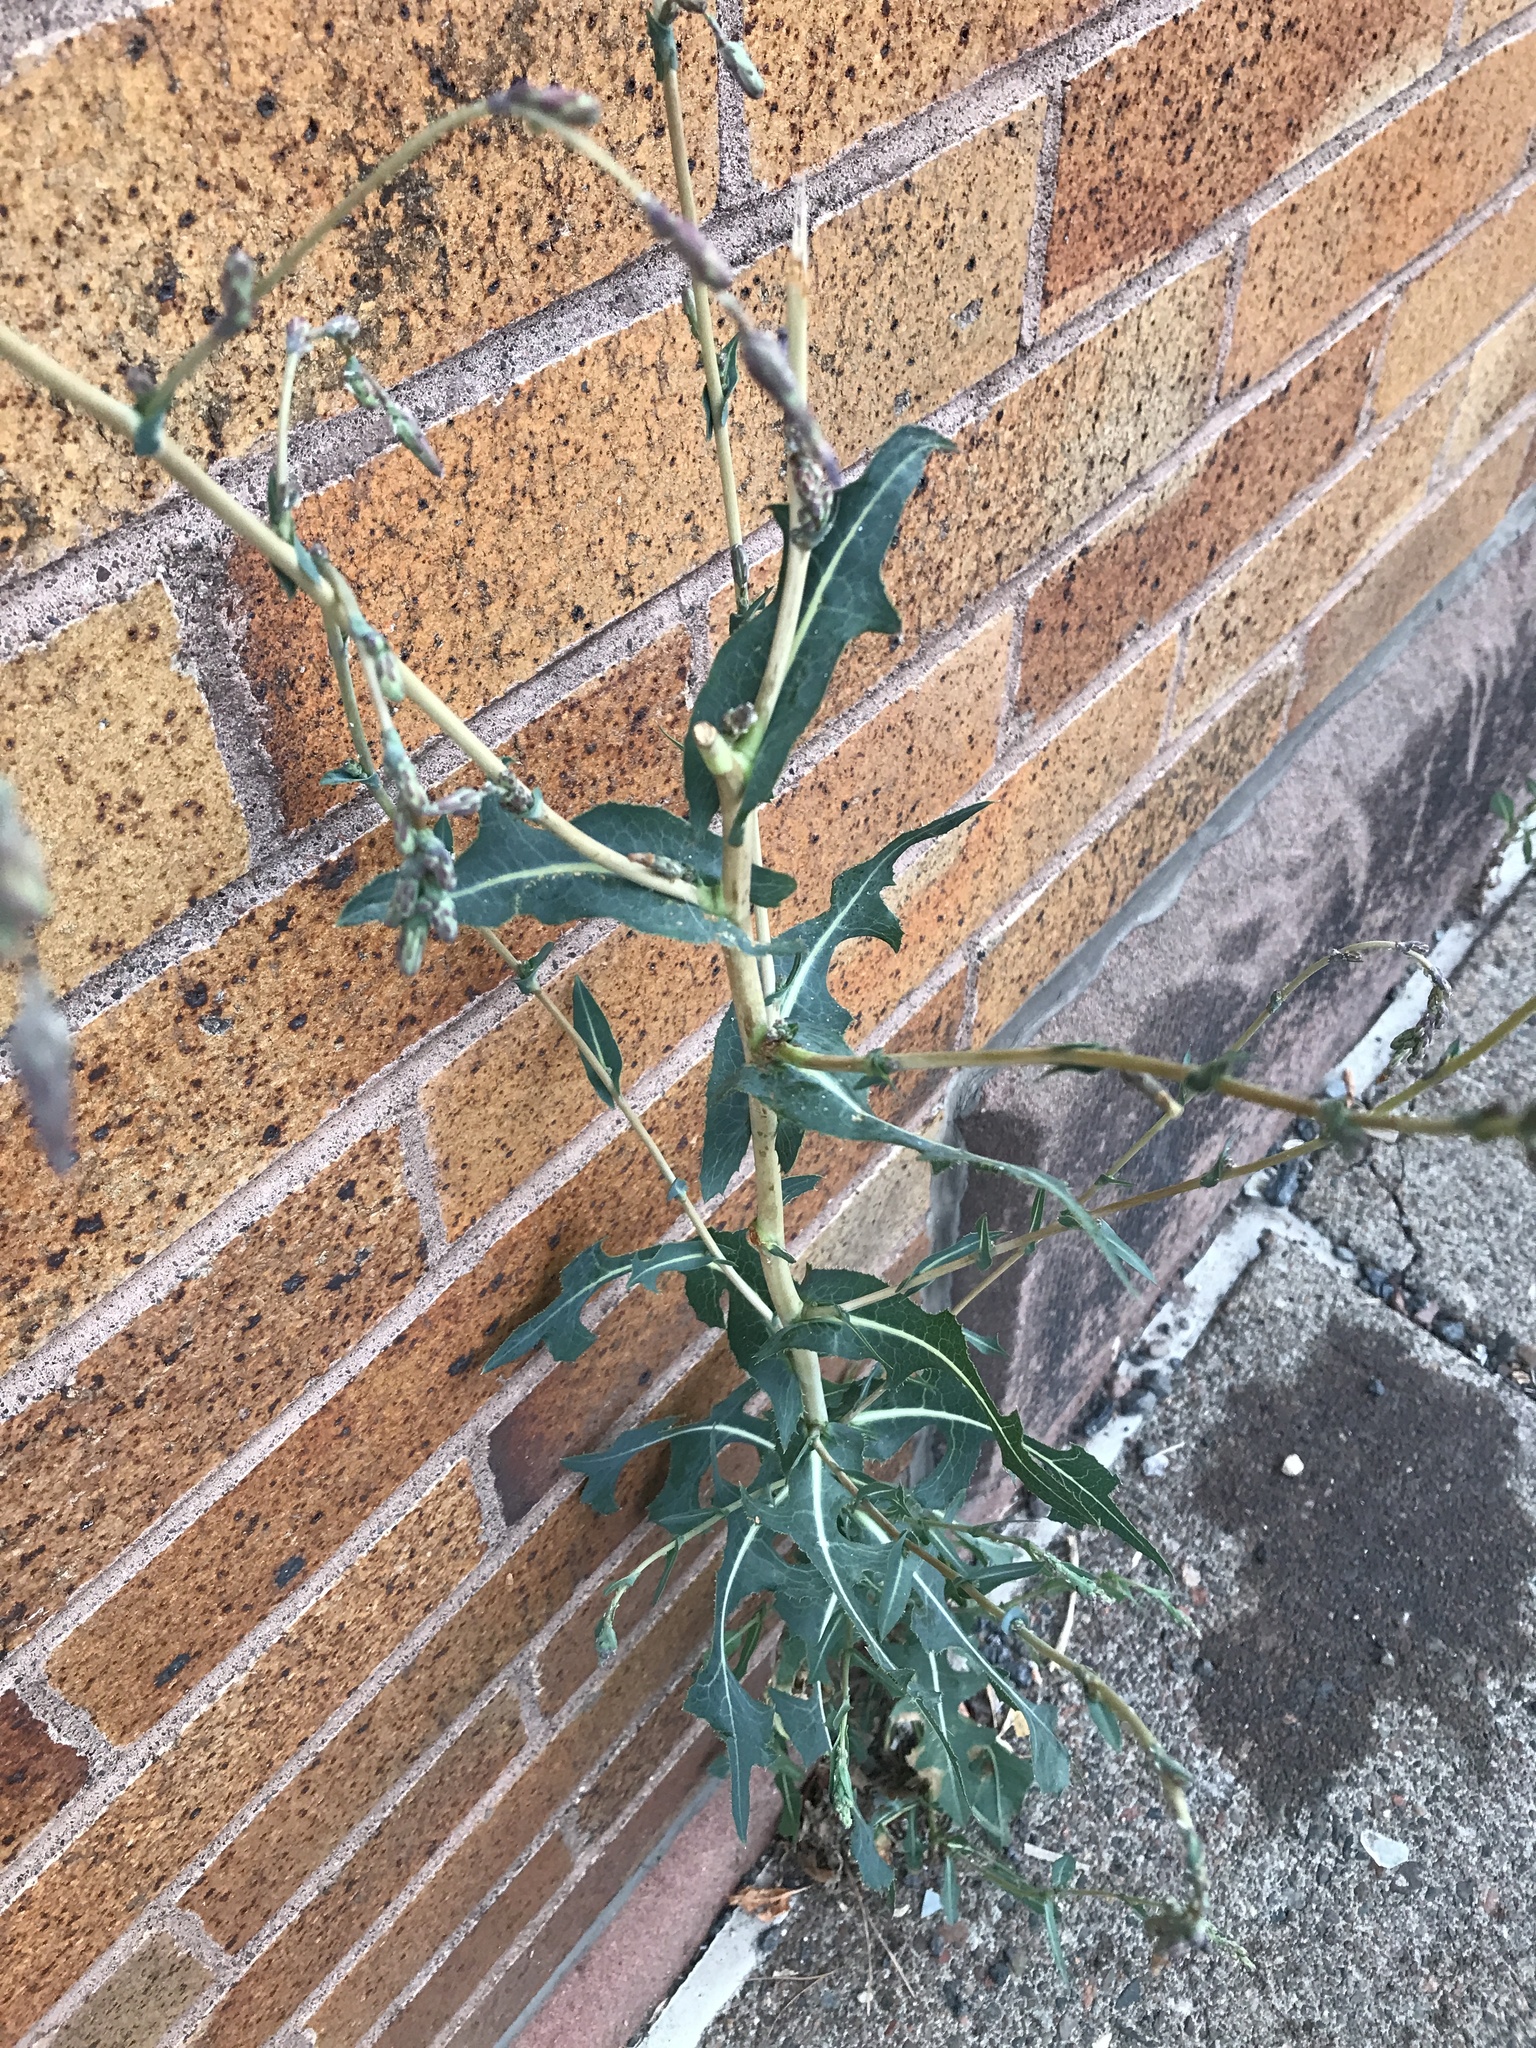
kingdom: Plantae
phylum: Tracheophyta
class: Magnoliopsida
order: Asterales
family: Asteraceae
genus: Lactuca
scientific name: Lactuca serriola
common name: Prickly lettuce
